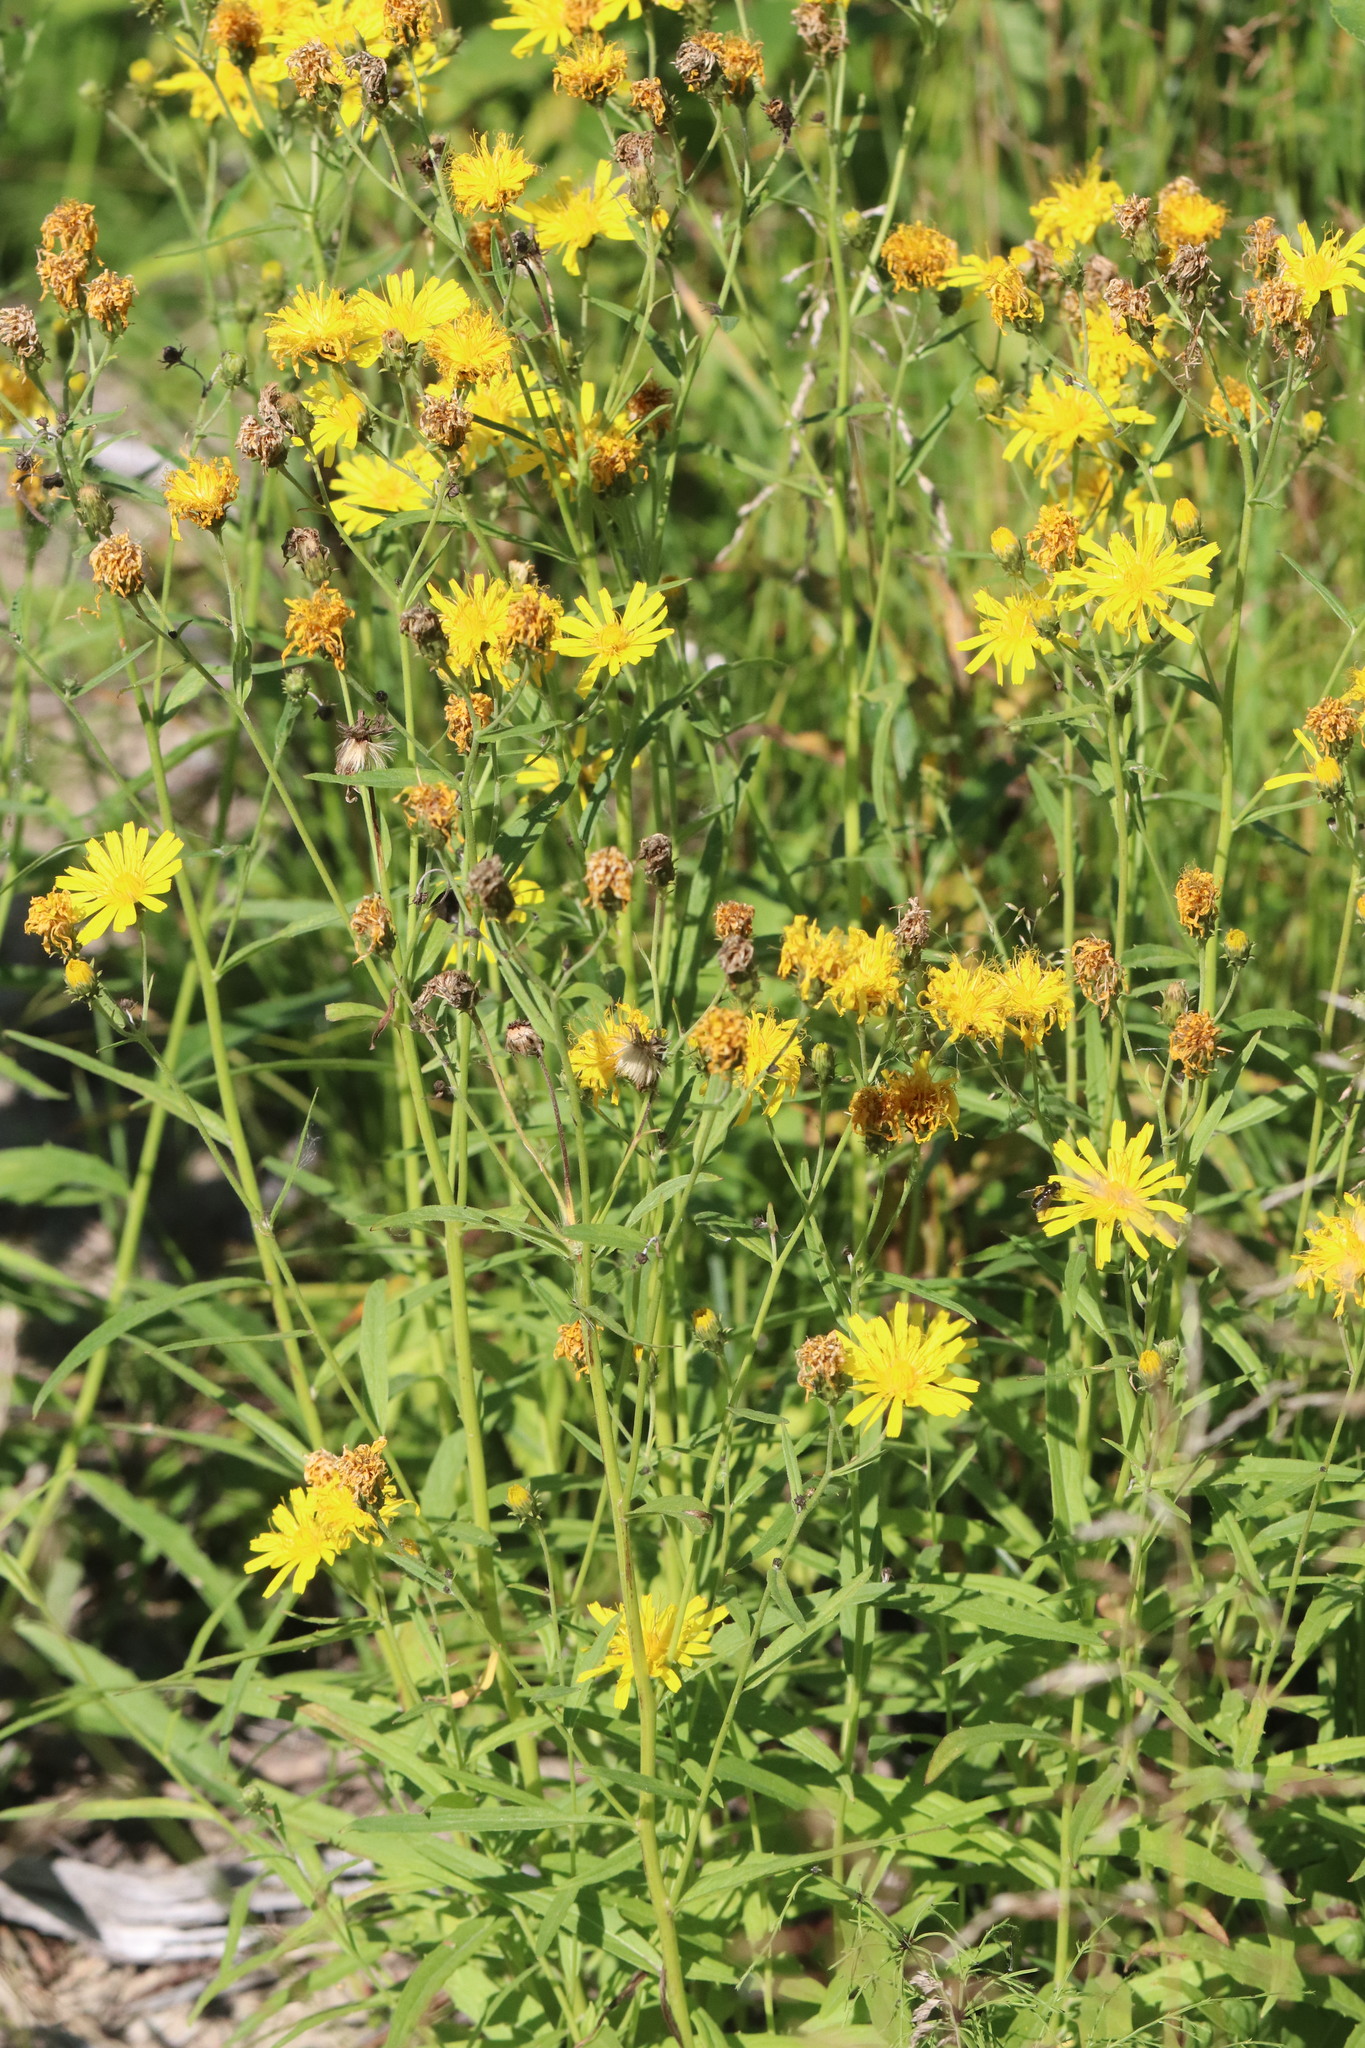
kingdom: Plantae
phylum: Tracheophyta
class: Magnoliopsida
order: Asterales
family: Asteraceae
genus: Hieracium
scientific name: Hieracium umbellatum
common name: Northern hawkweed
